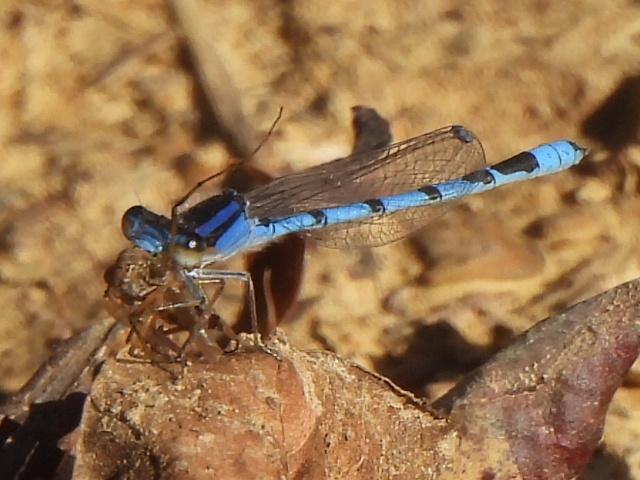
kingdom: Animalia
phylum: Arthropoda
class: Insecta
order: Odonata
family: Coenagrionidae
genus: Enallagma
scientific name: Enallagma civile
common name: Damselfly
